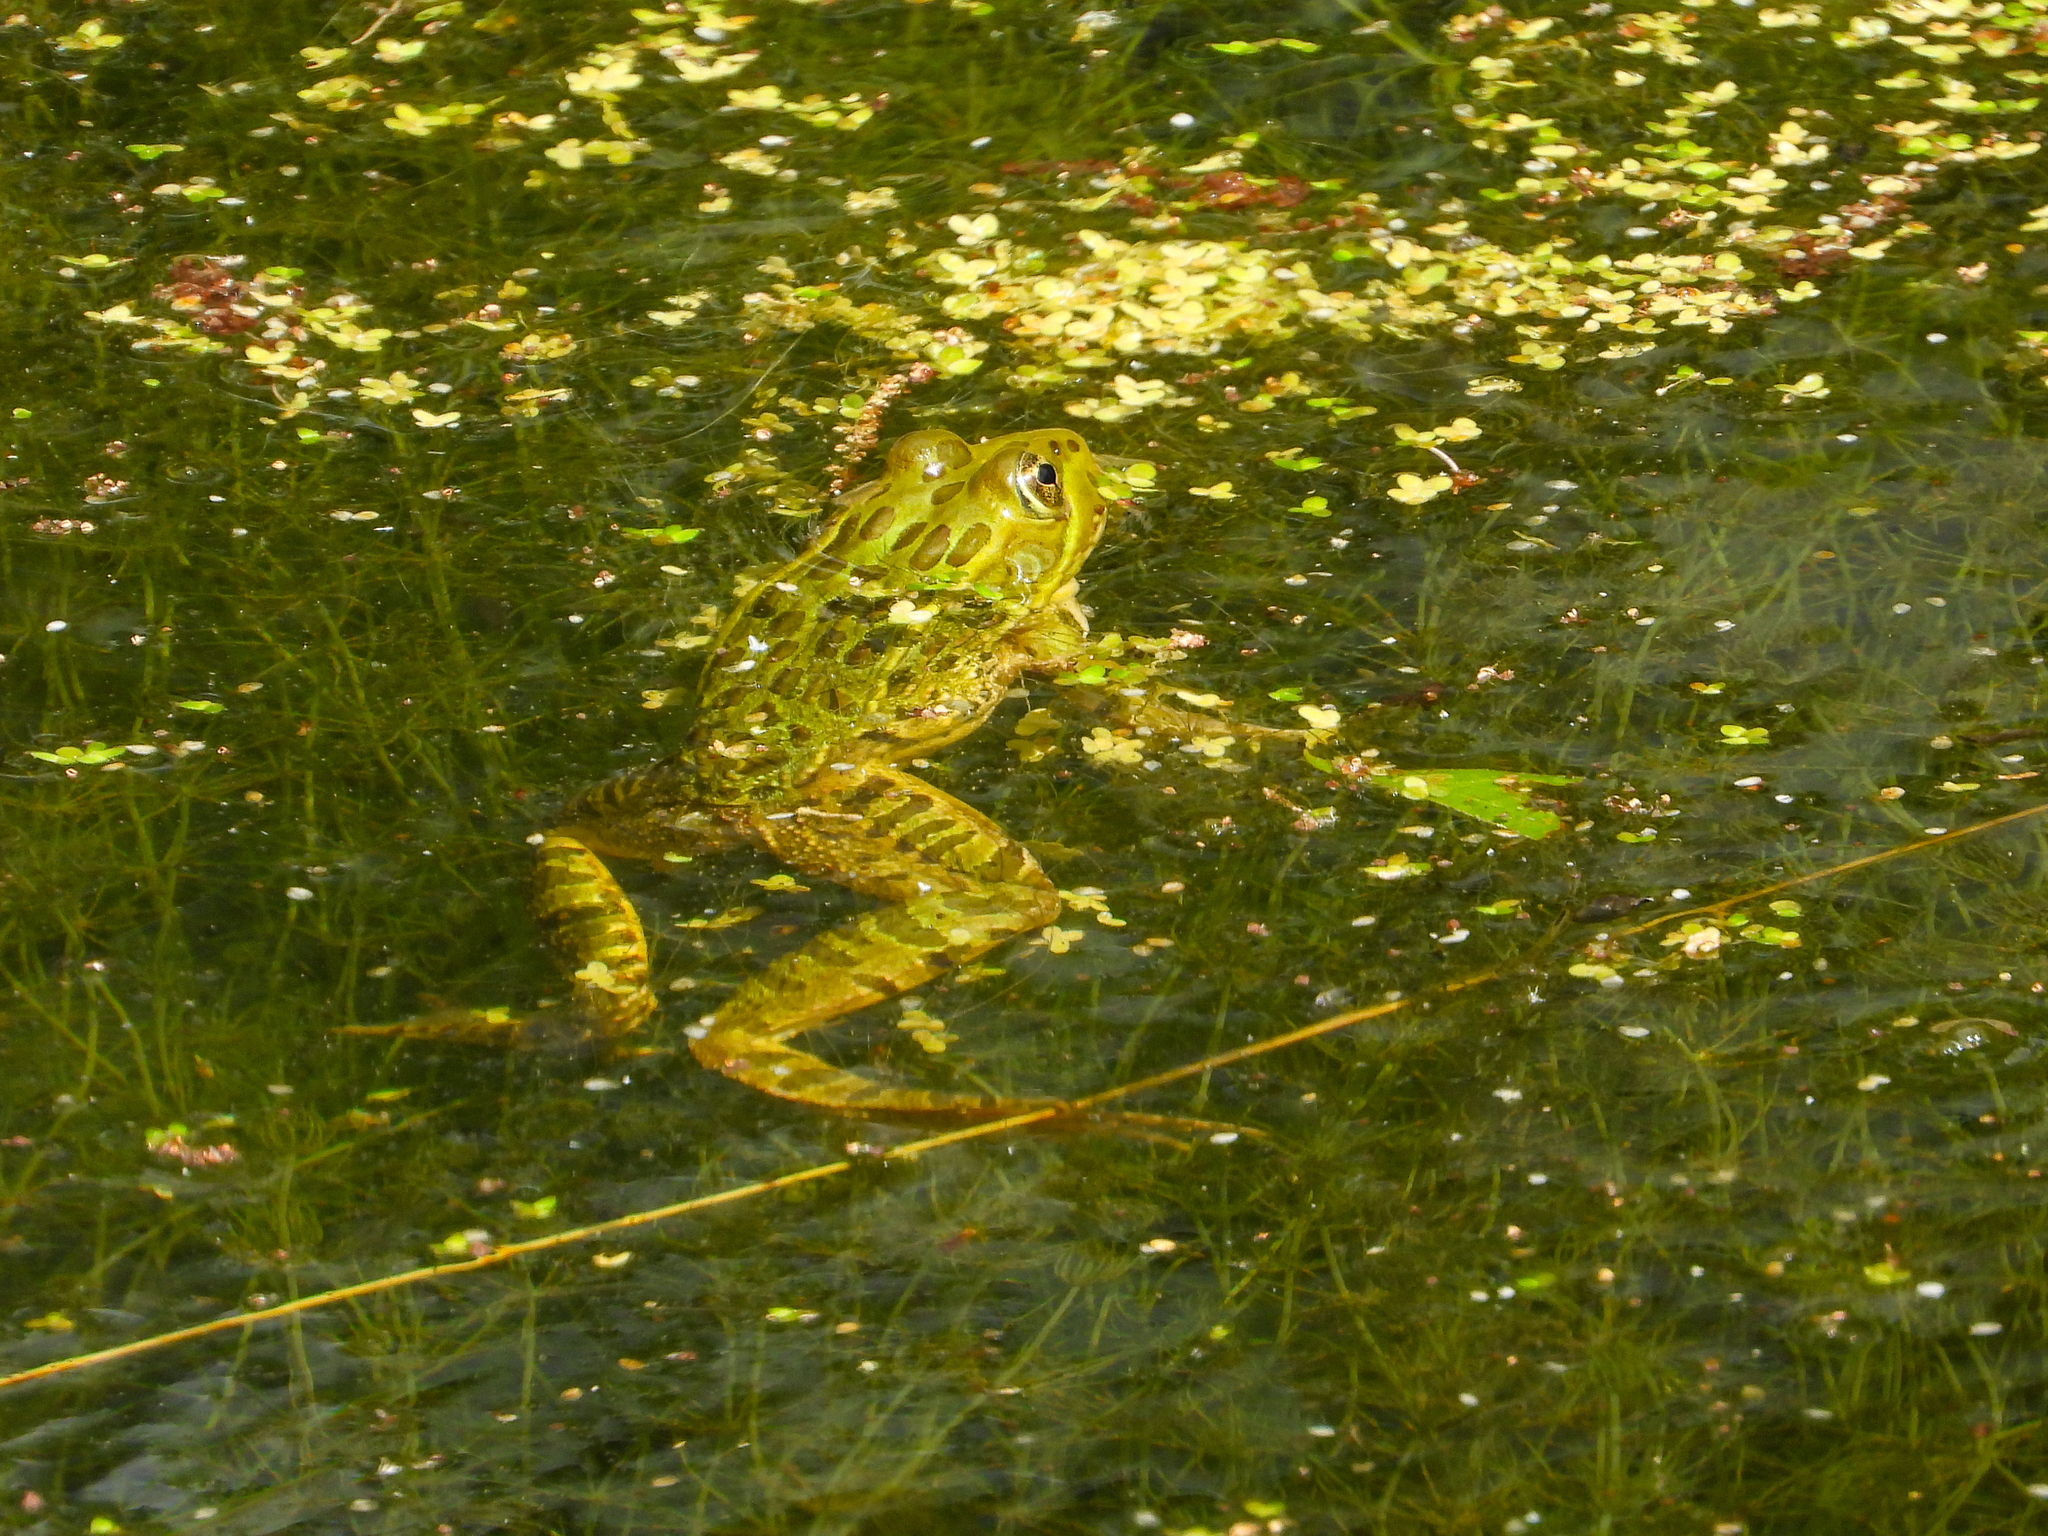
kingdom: Animalia
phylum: Chordata
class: Amphibia
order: Anura
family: Ranidae
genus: Lithobates
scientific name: Lithobates chiricahuensis
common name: Chiricahua leopard frog
